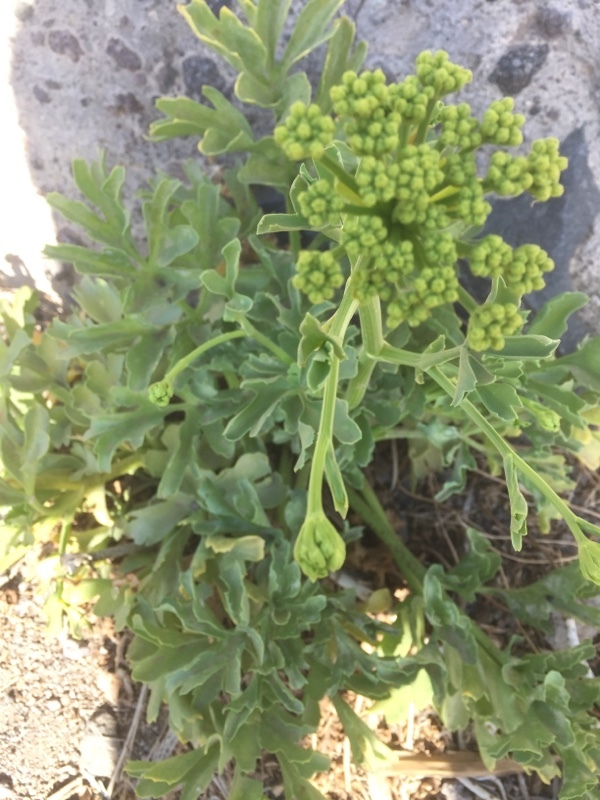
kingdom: Plantae
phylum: Tracheophyta
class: Magnoliopsida
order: Apiales
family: Apiaceae
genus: Astydamia
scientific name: Astydamia latifolia
